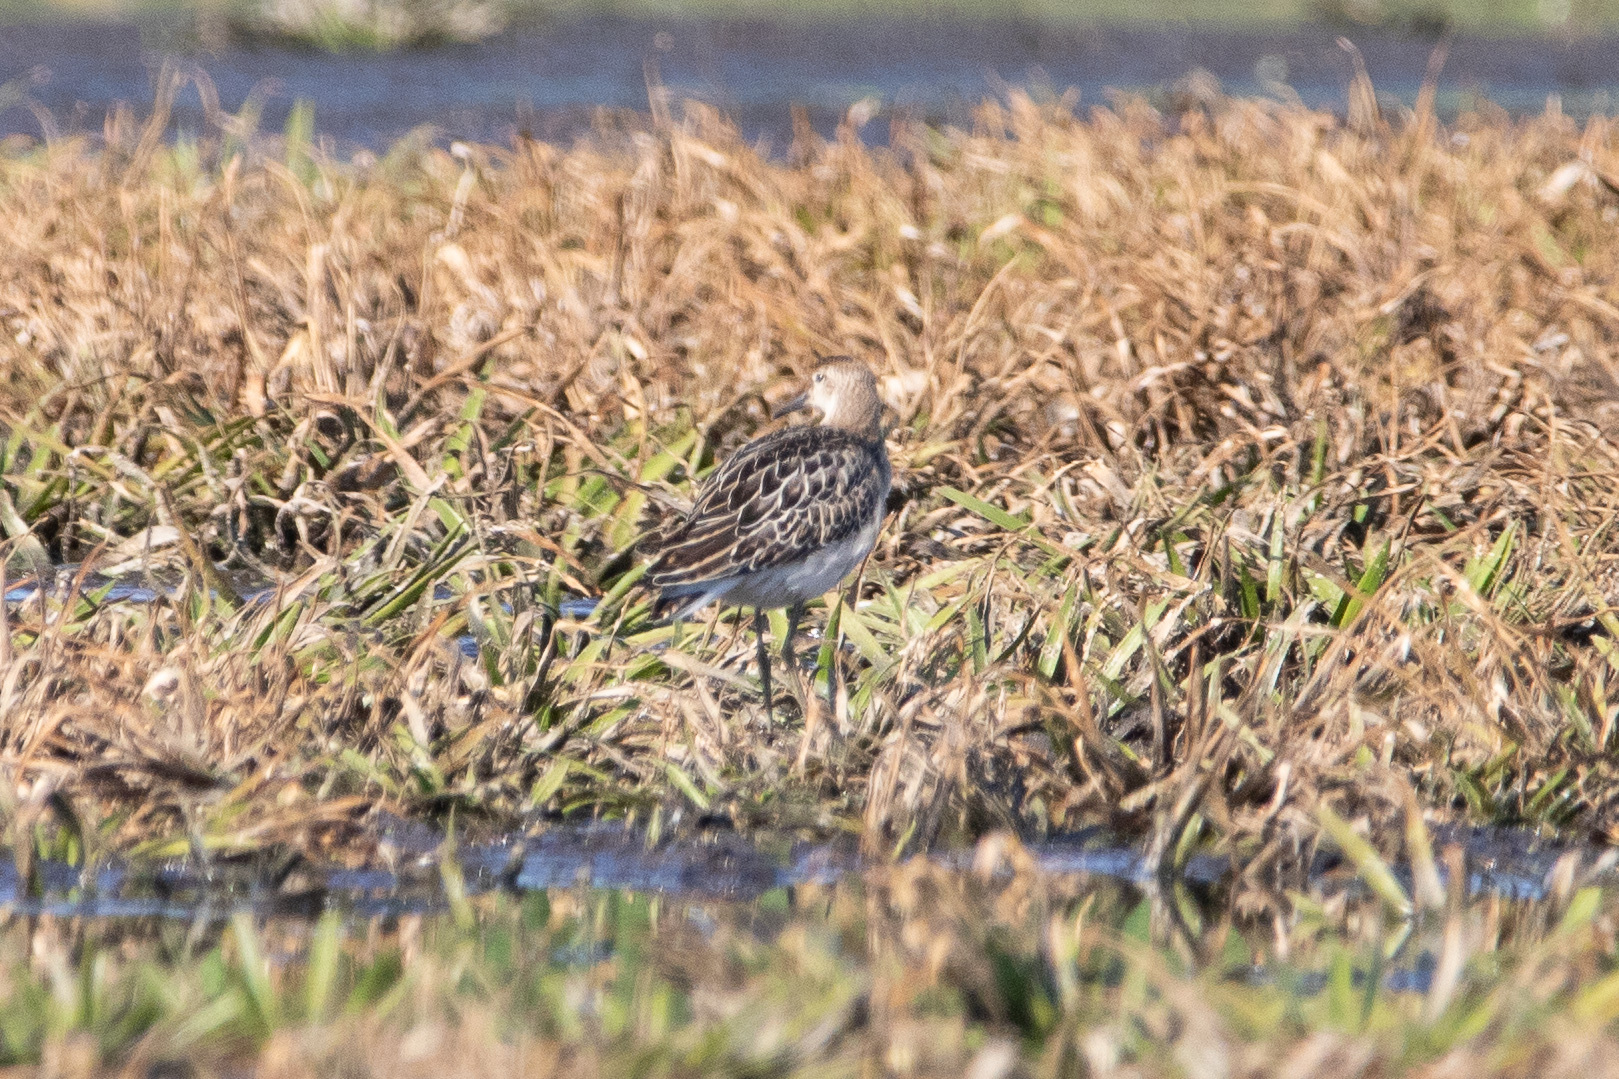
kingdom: Animalia
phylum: Chordata
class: Aves
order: Charadriiformes
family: Scolopacidae
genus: Calidris
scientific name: Calidris pugnax
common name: Ruff
